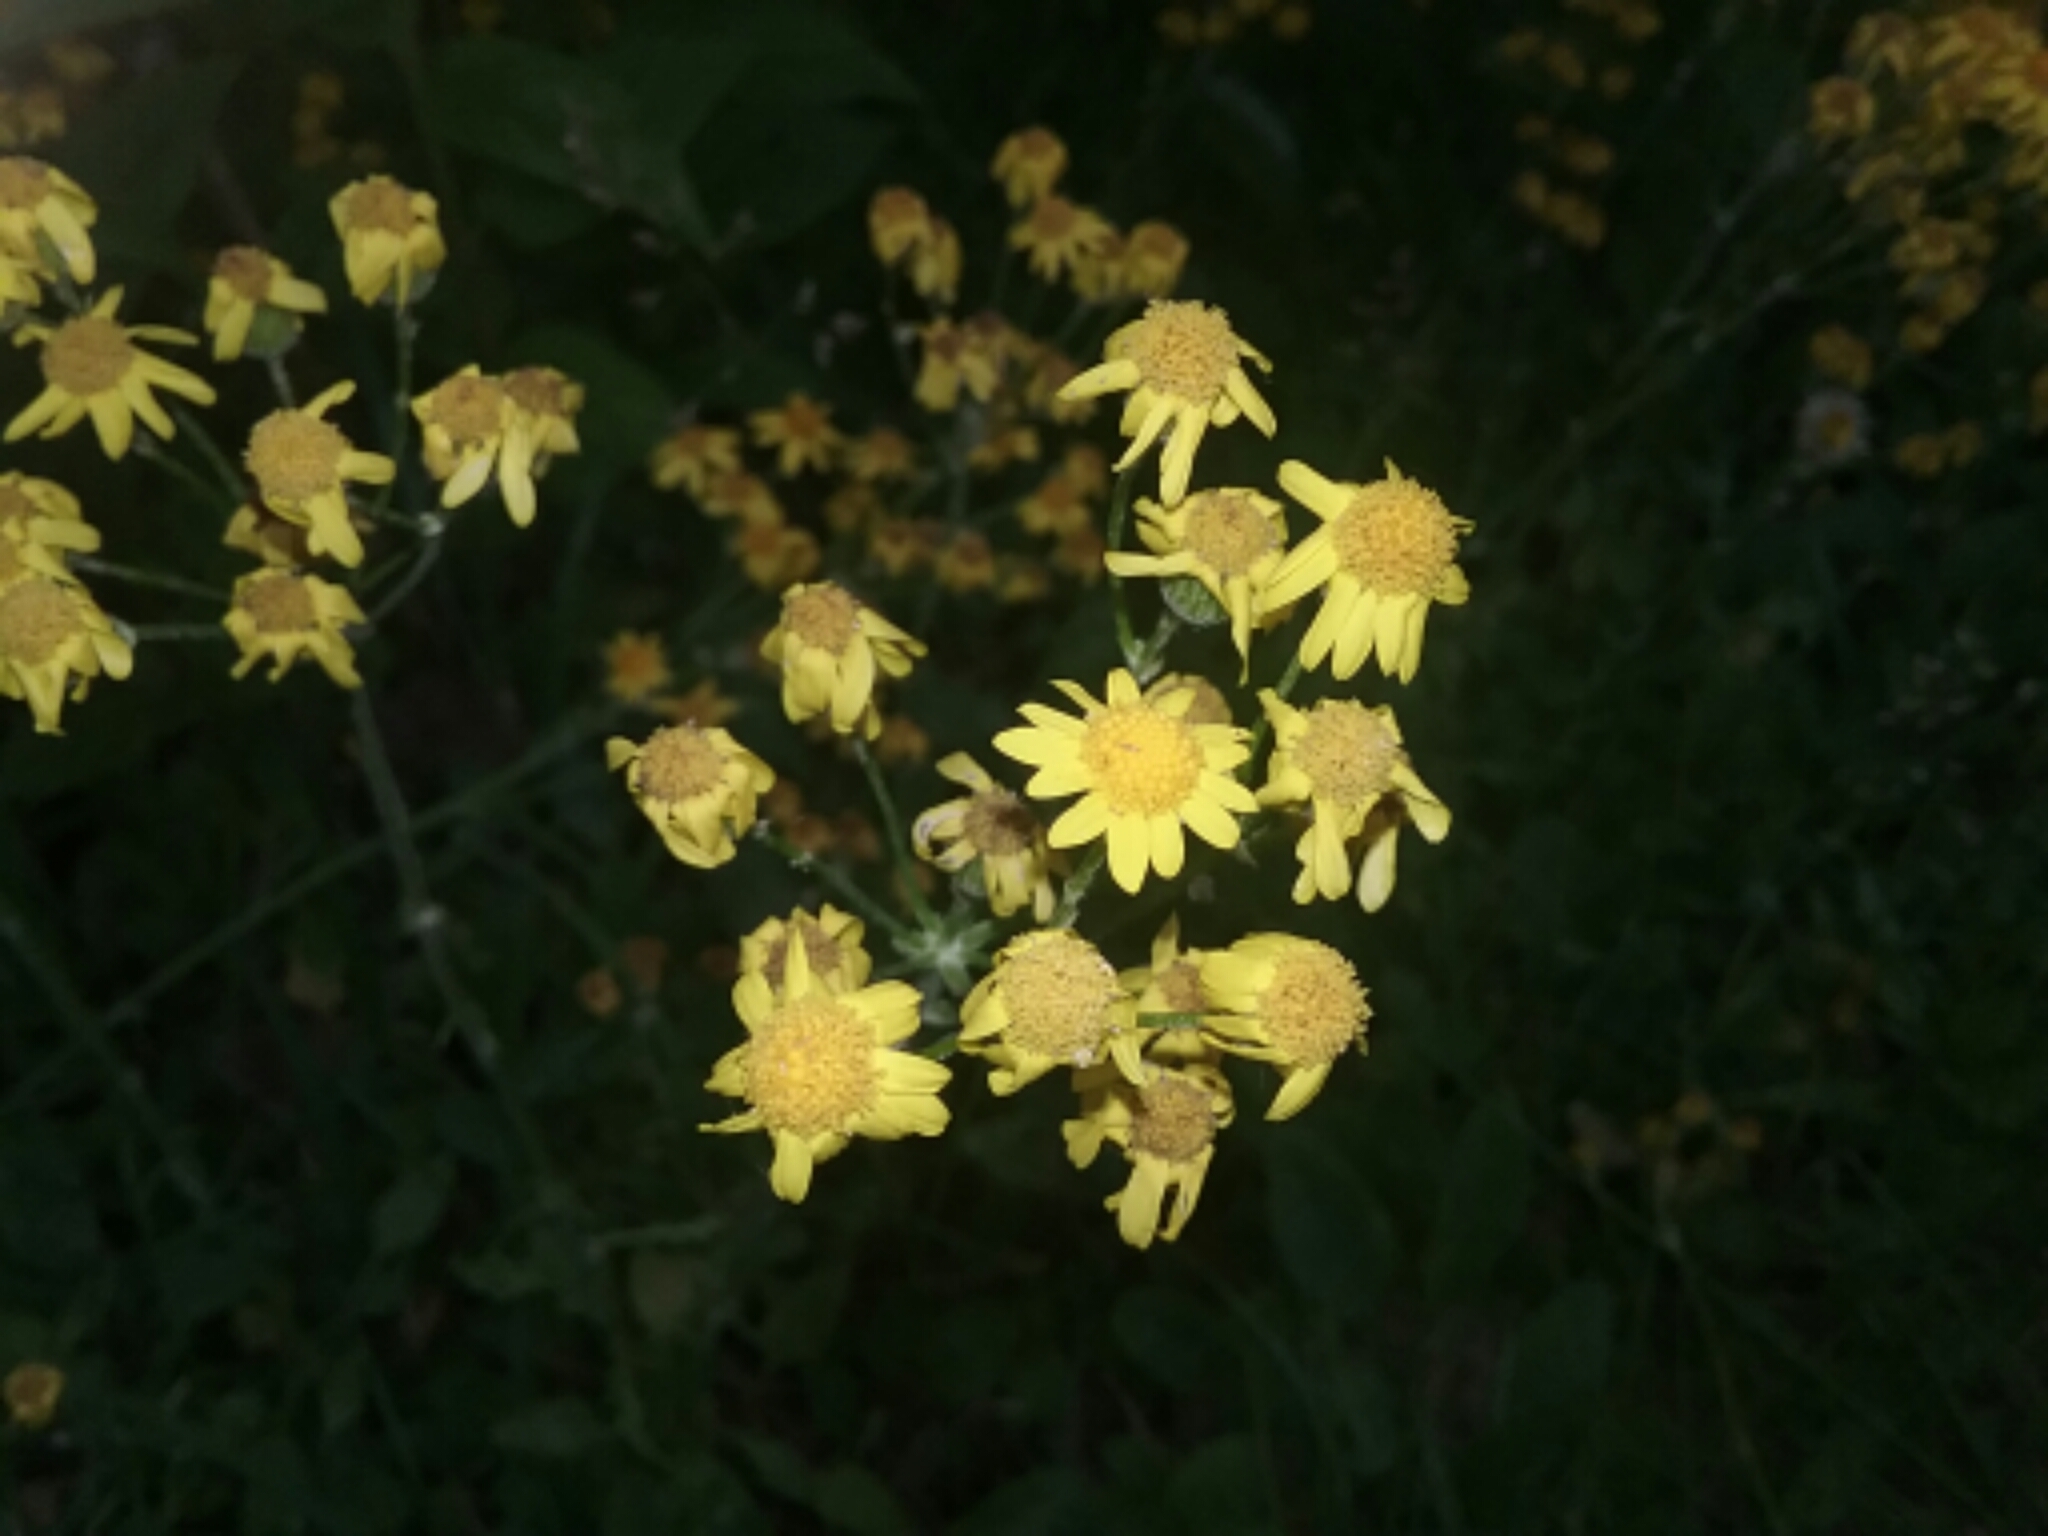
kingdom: Plantae
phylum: Tracheophyta
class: Magnoliopsida
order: Asterales
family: Asteraceae
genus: Packera
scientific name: Packera paupercula
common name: Balsam groundsel
